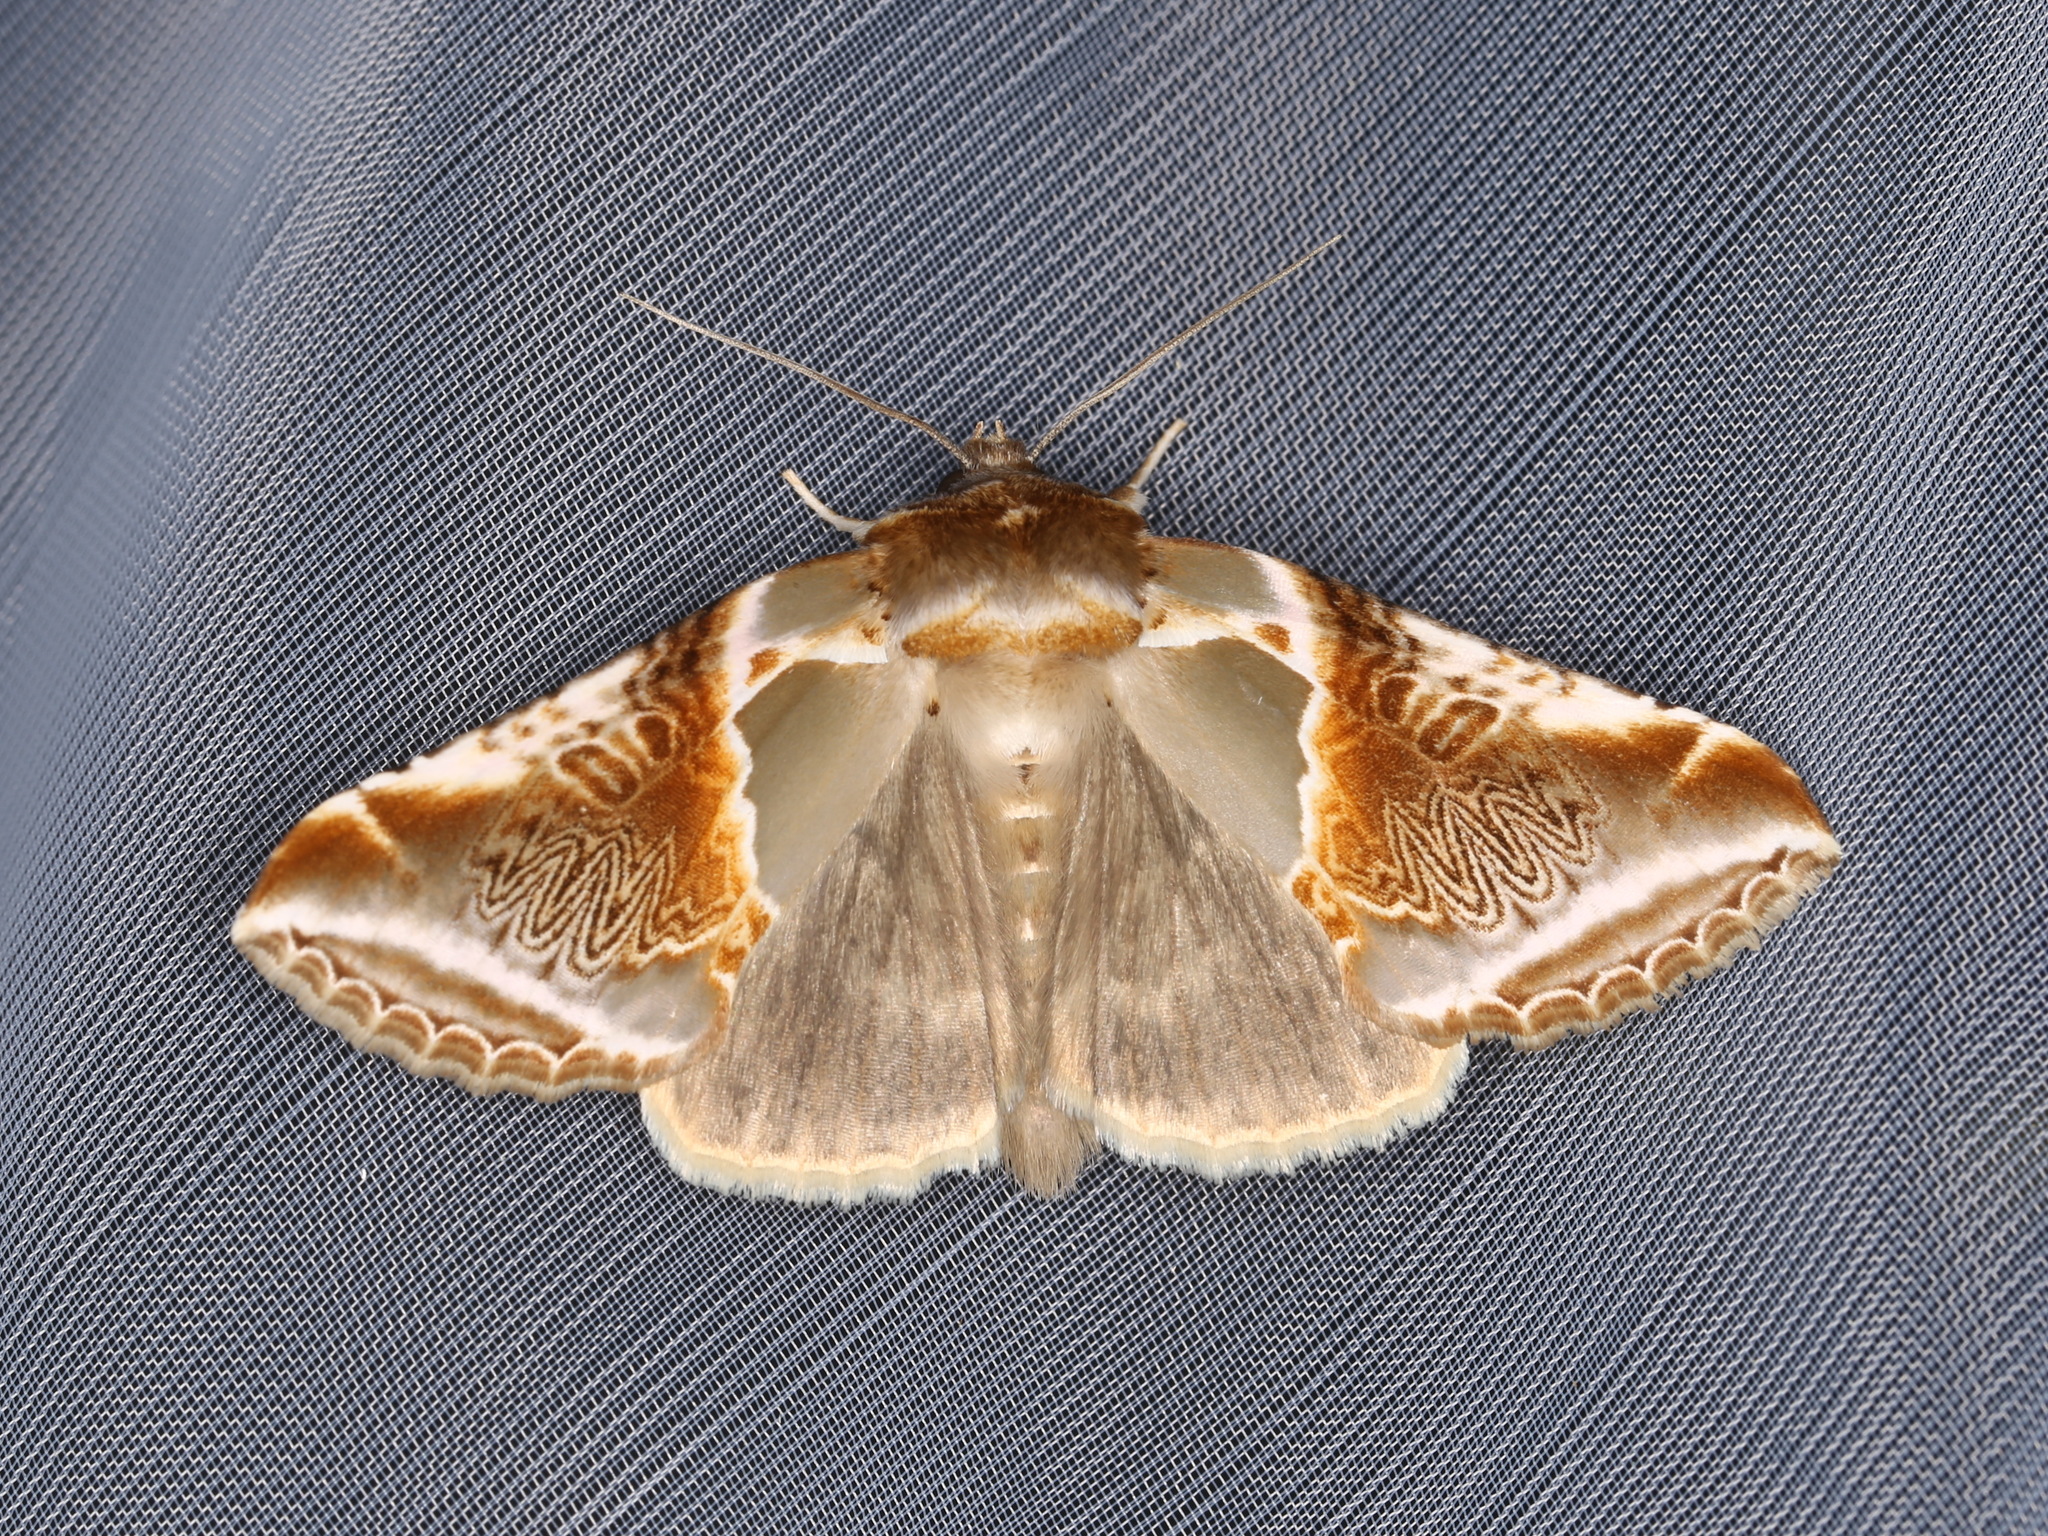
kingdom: Animalia
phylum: Arthropoda
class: Insecta
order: Lepidoptera
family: Drepanidae
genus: Habrosyne
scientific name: Habrosyne pyritoides
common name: Buff arches
